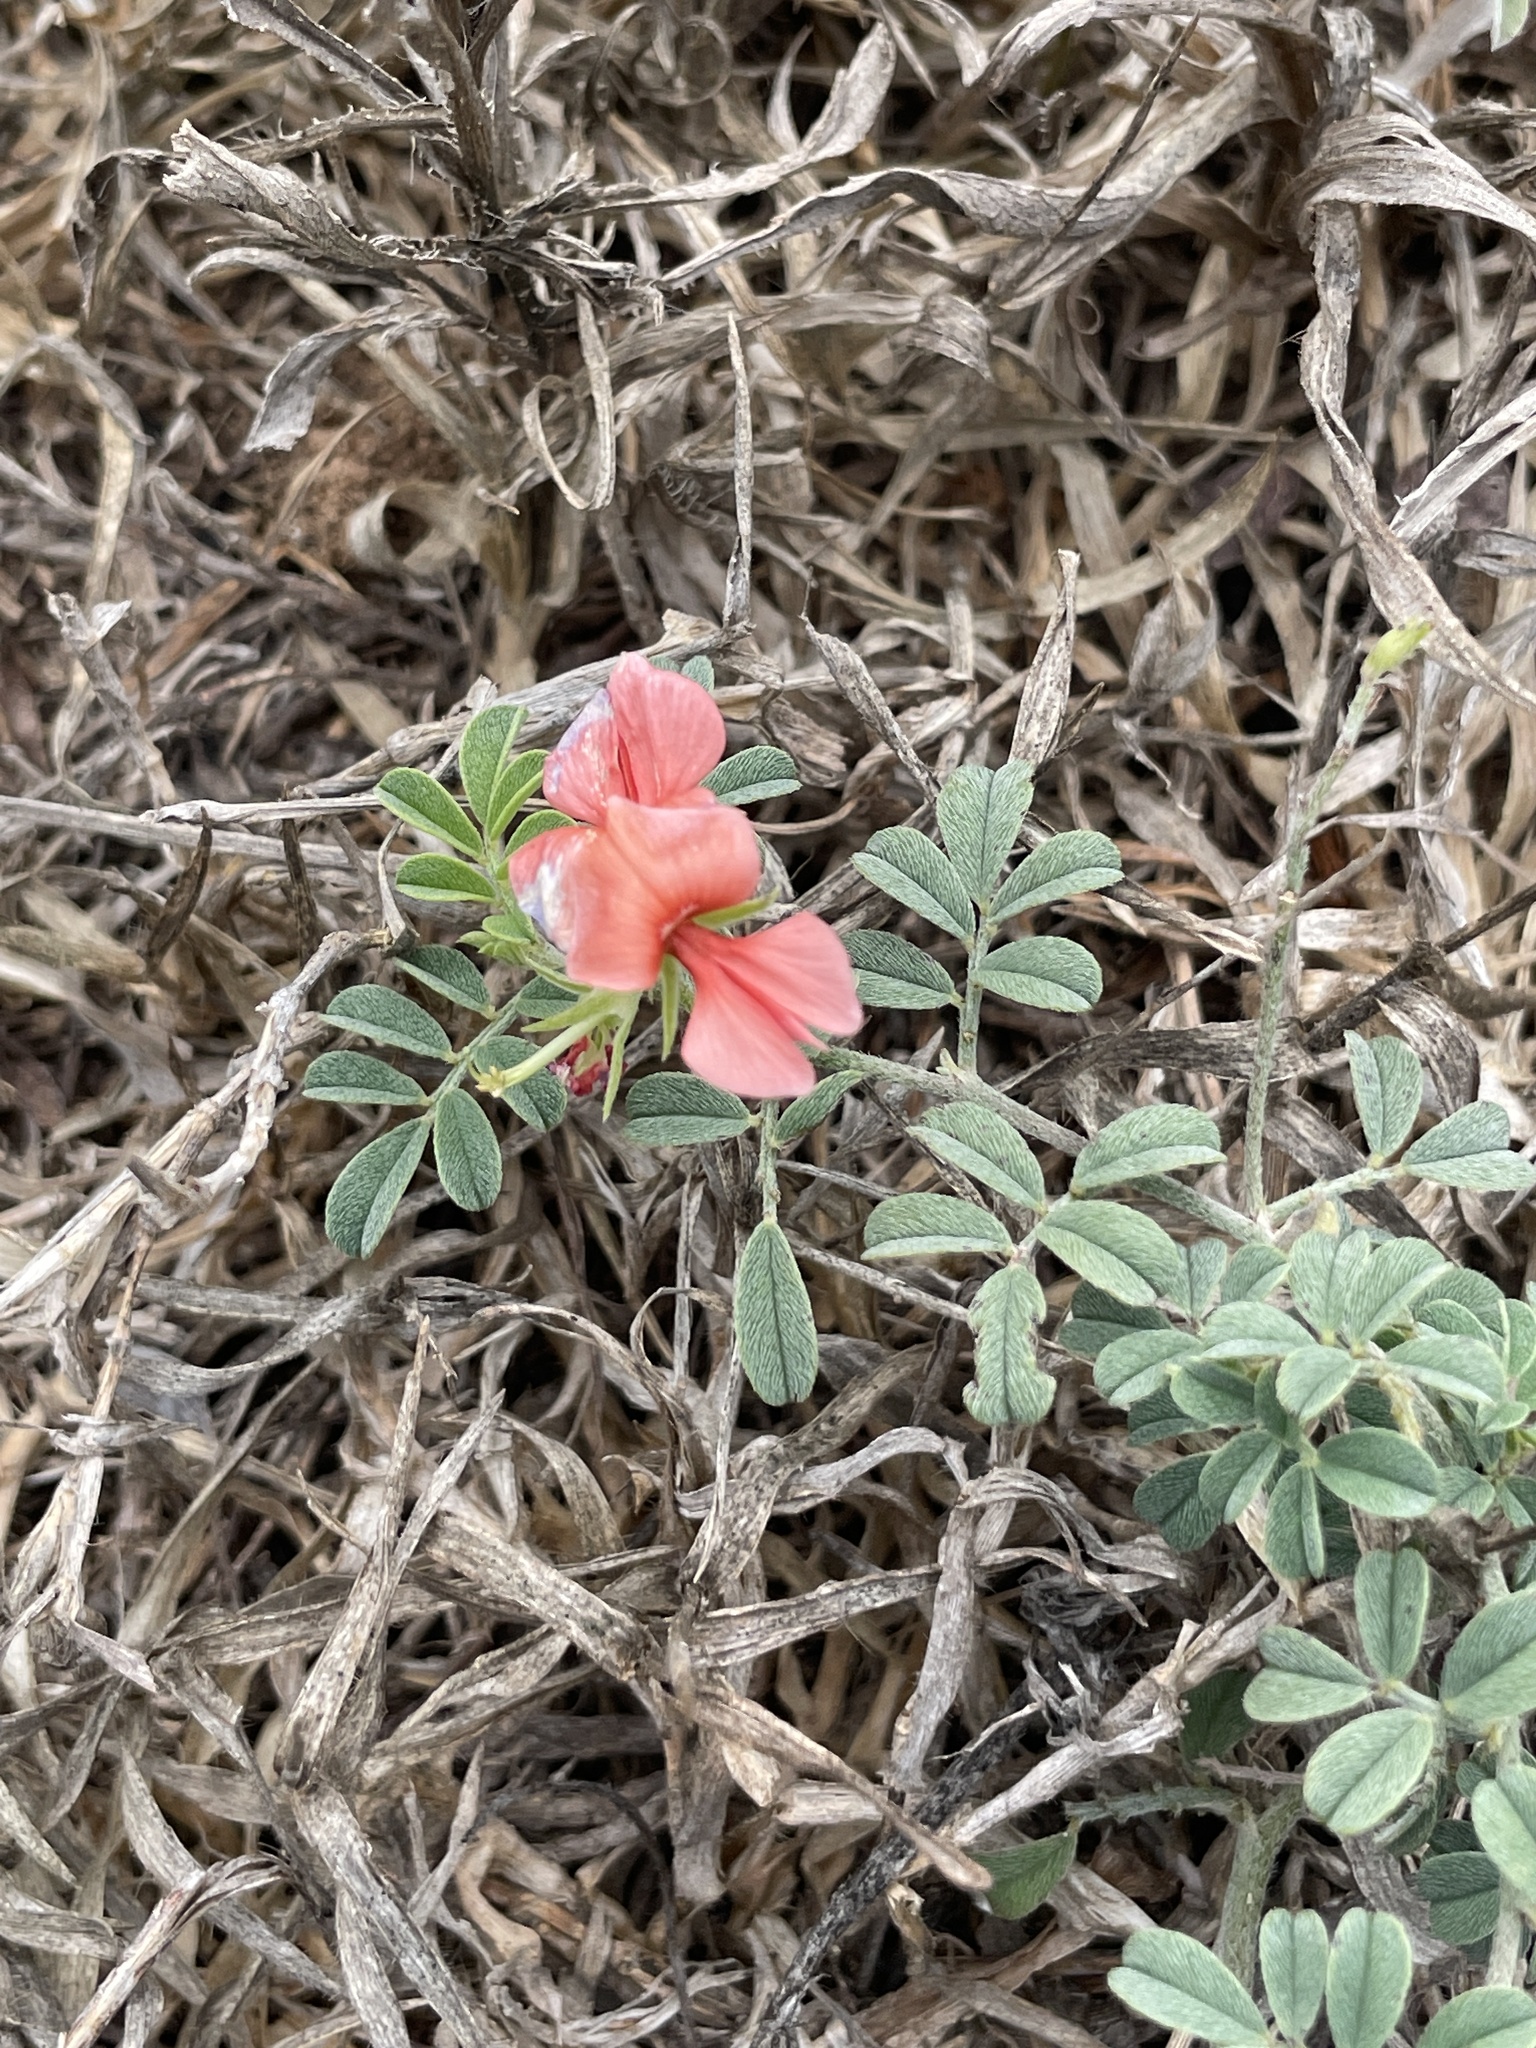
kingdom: Plantae
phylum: Tracheophyta
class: Magnoliopsida
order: Fabales
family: Fabaceae
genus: Indigofera
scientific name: Indigofera miniata
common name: Coast indigo
